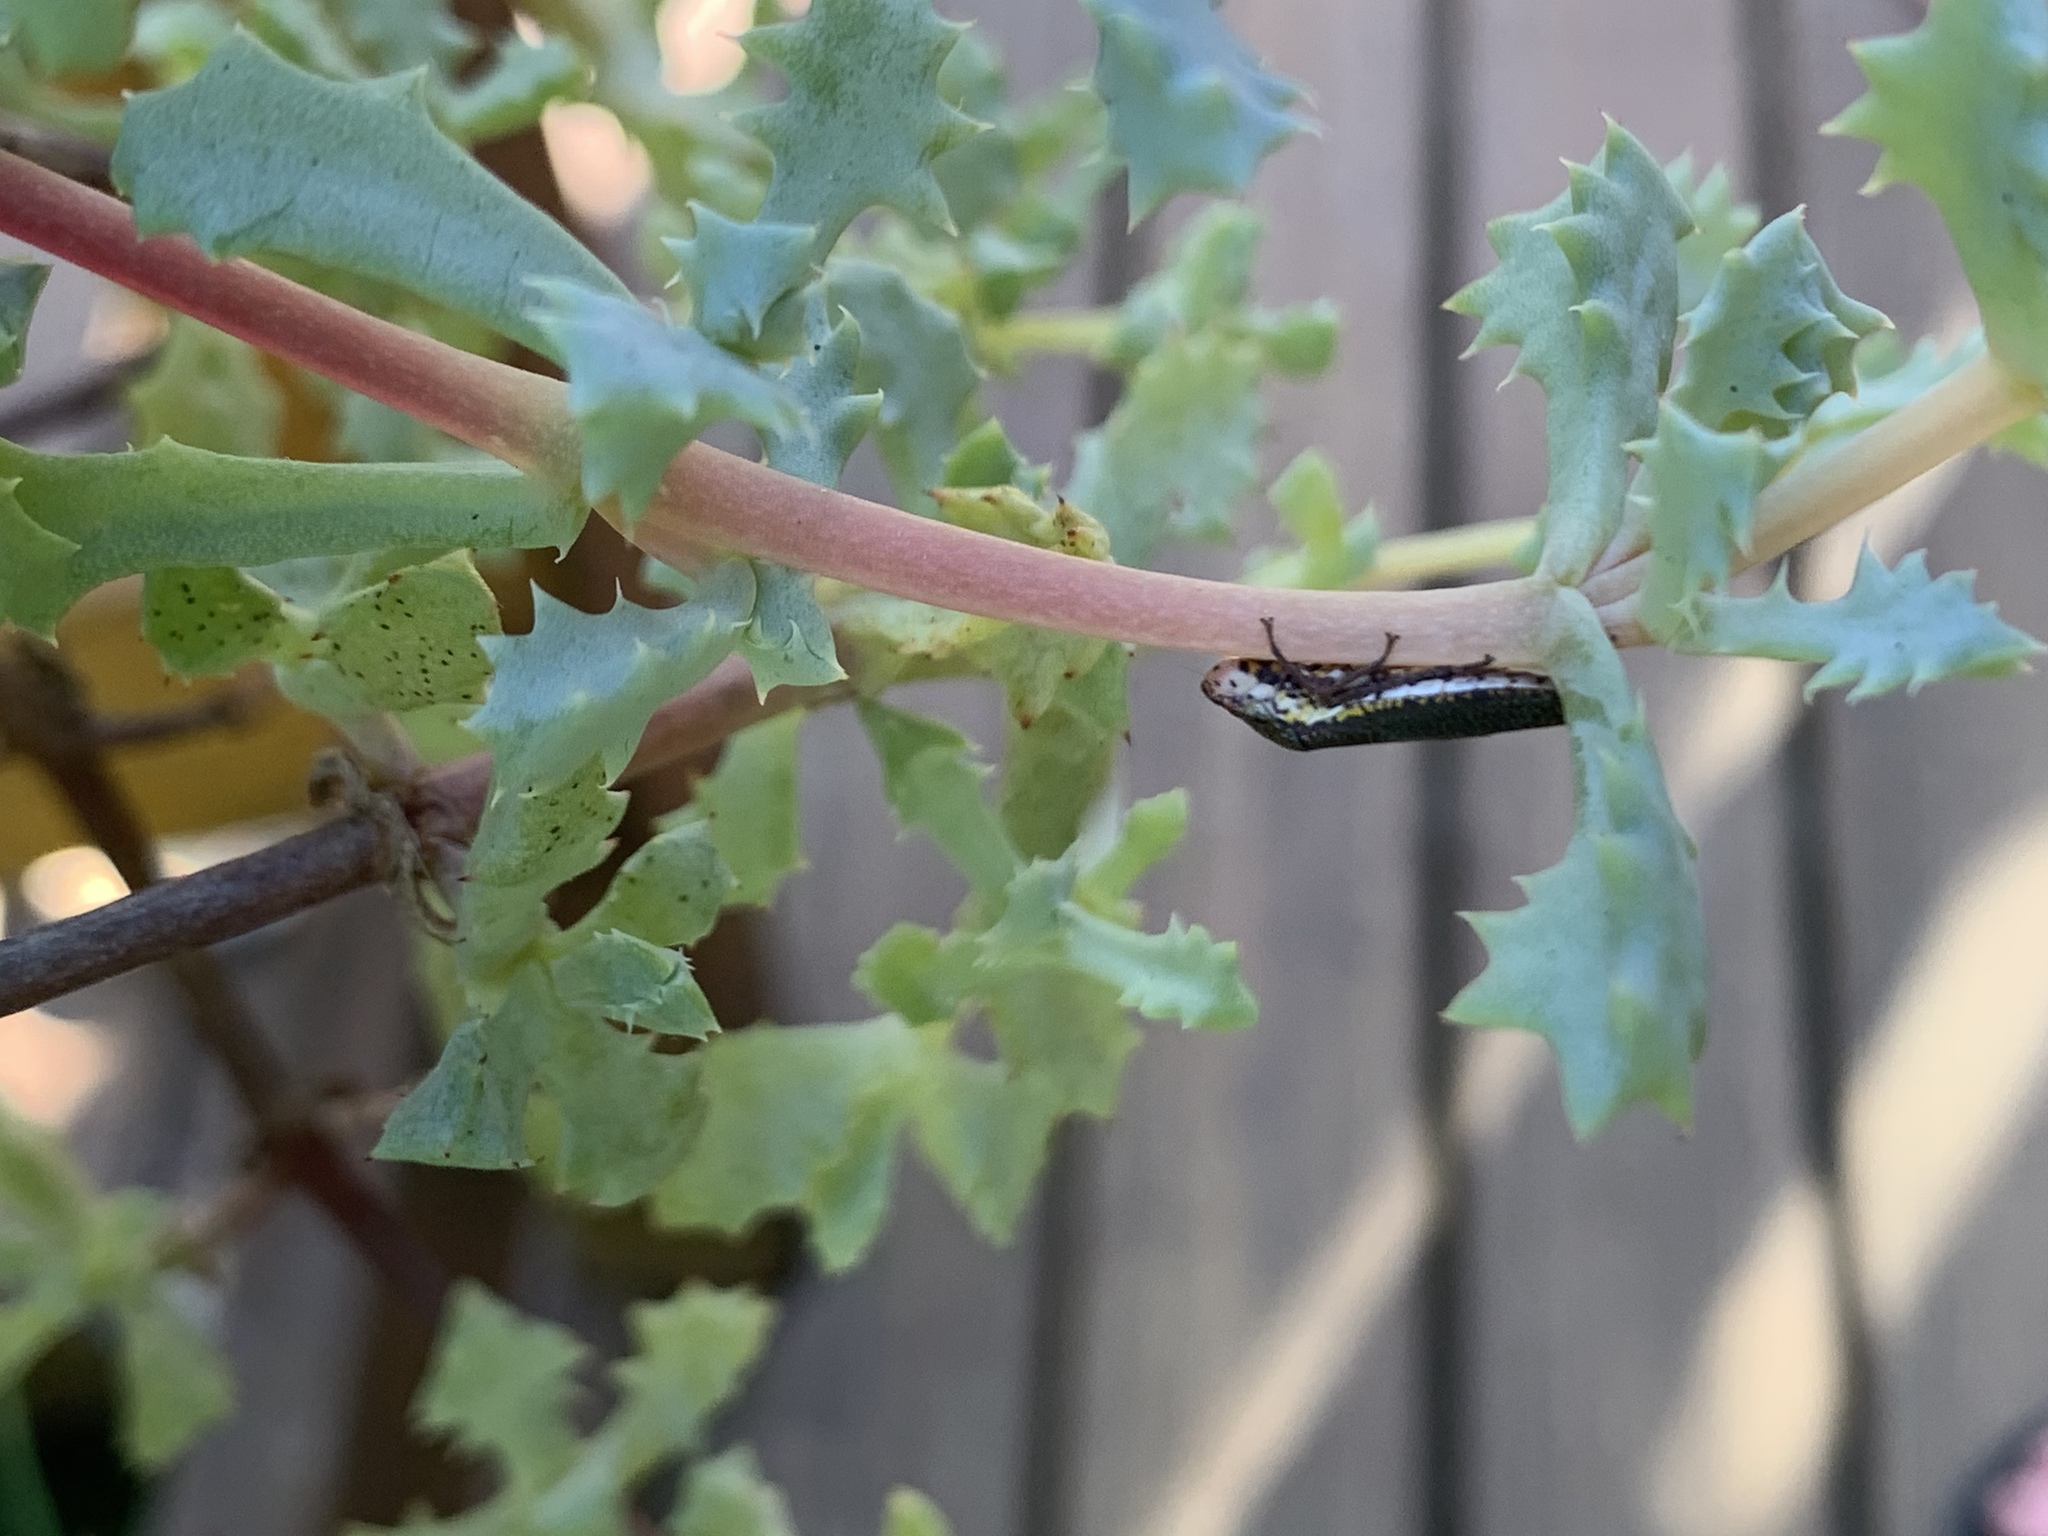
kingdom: Animalia
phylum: Arthropoda
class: Insecta
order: Hemiptera
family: Cicadellidae
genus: Paraulacizes
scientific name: Paraulacizes irrorata
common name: Speckled sharpshooter
